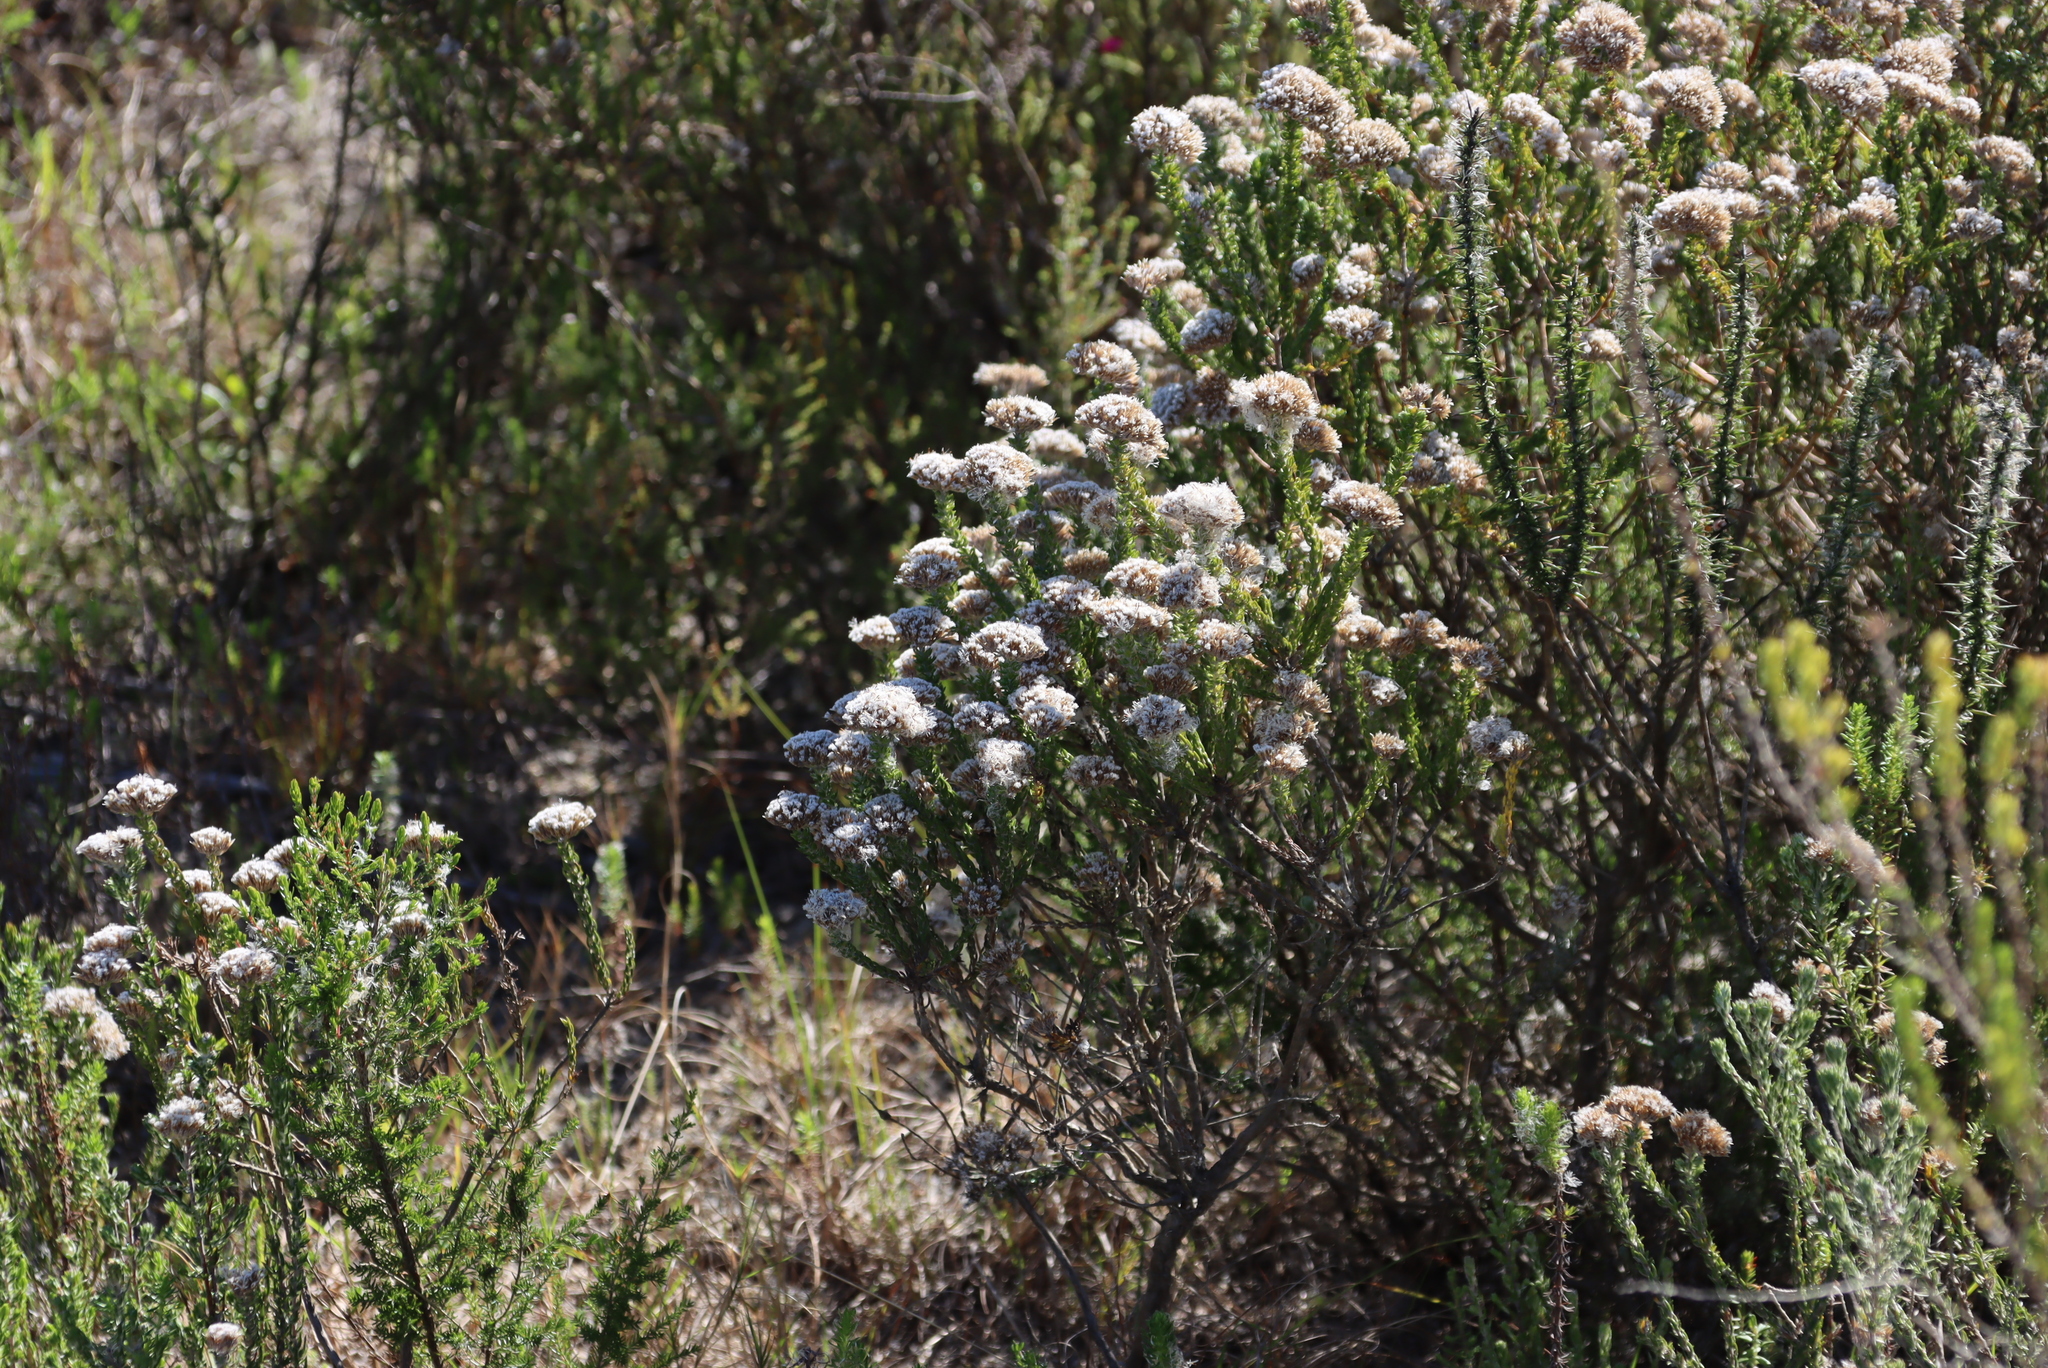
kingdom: Plantae
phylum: Tracheophyta
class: Magnoliopsida
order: Asterales
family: Asteraceae
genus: Metalasia
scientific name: Metalasia pungens
